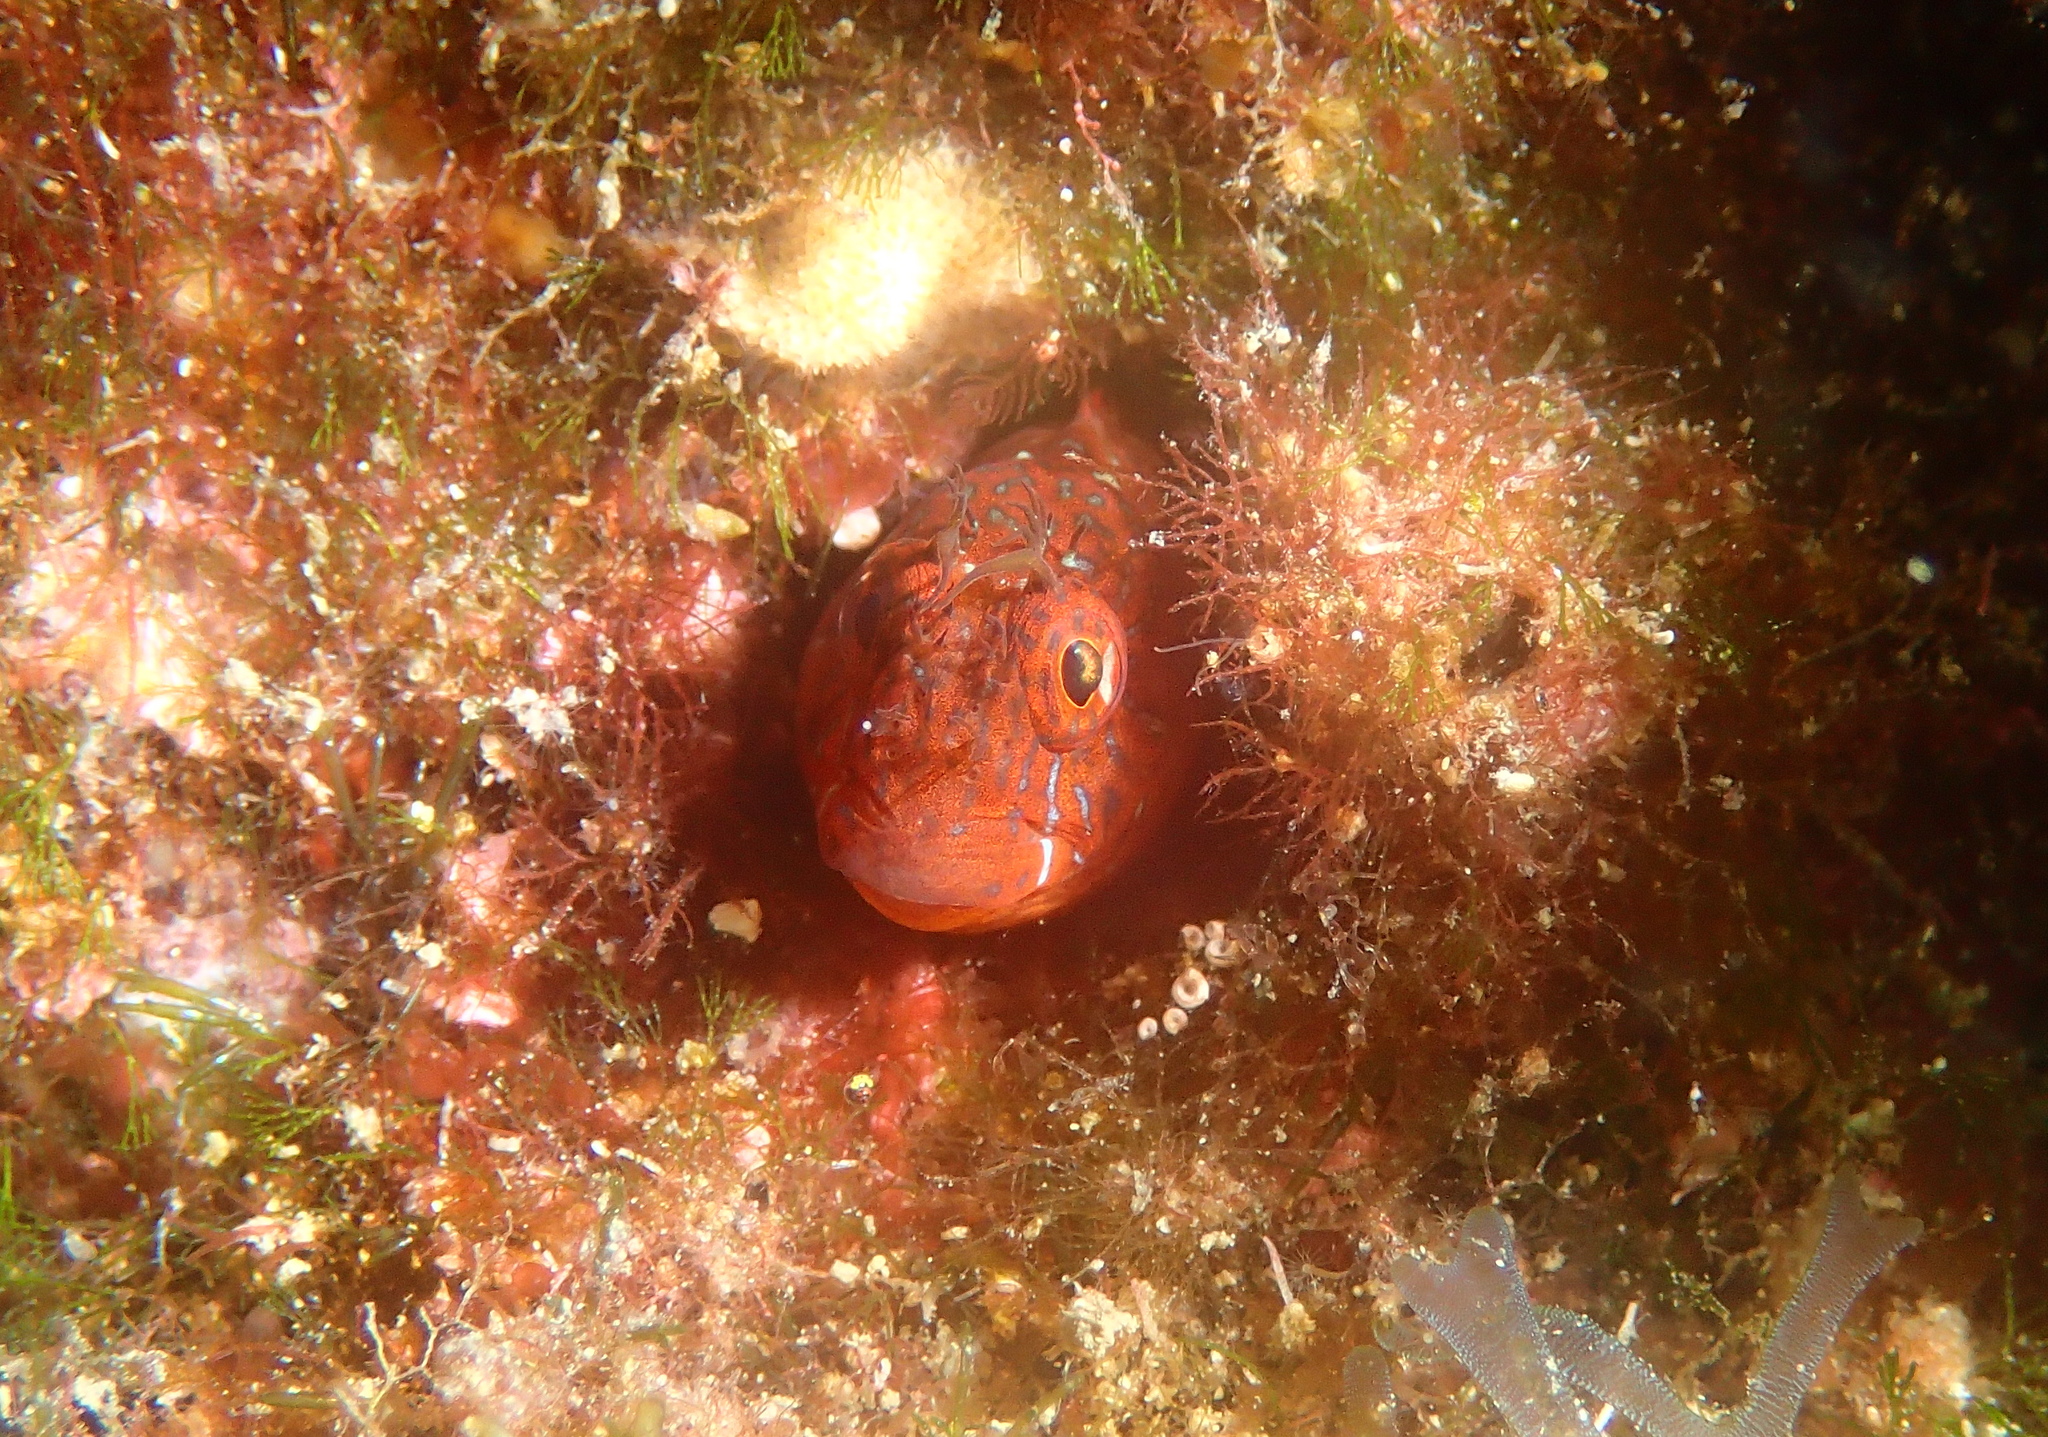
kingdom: Animalia
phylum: Chordata
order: Perciformes
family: Blenniidae
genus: Parablennius
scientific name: Parablennius zvonimiri
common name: Red blenny
